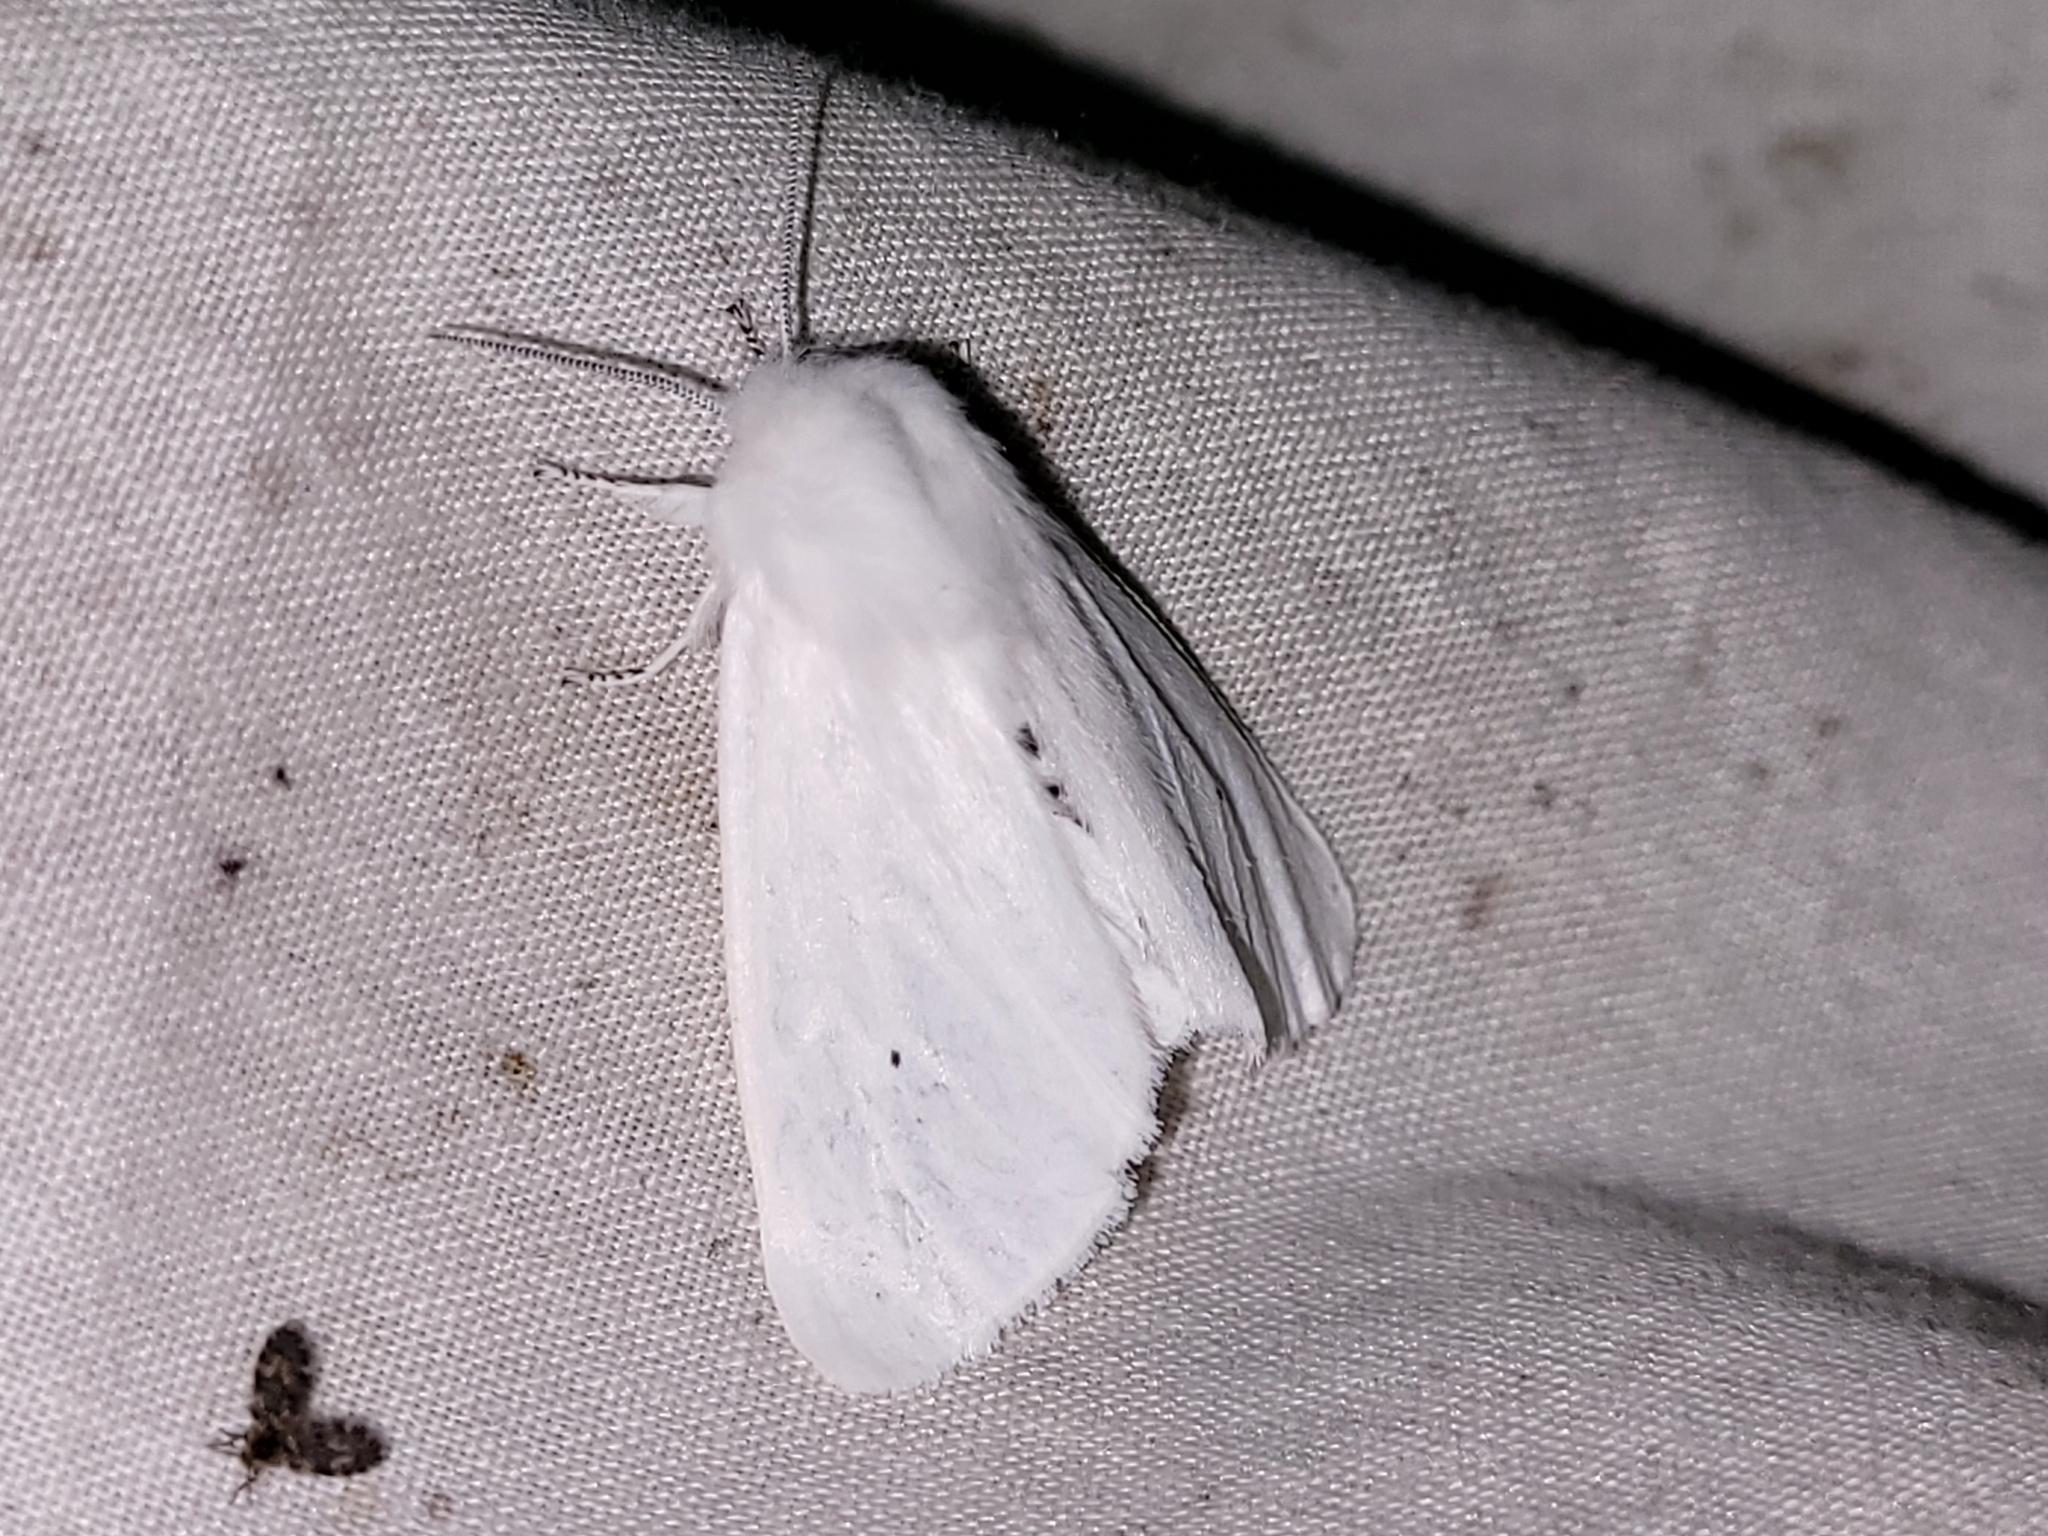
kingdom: Animalia
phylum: Arthropoda
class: Insecta
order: Lepidoptera
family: Erebidae
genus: Spilosoma
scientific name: Spilosoma virginica
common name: Virginia tiger moth
